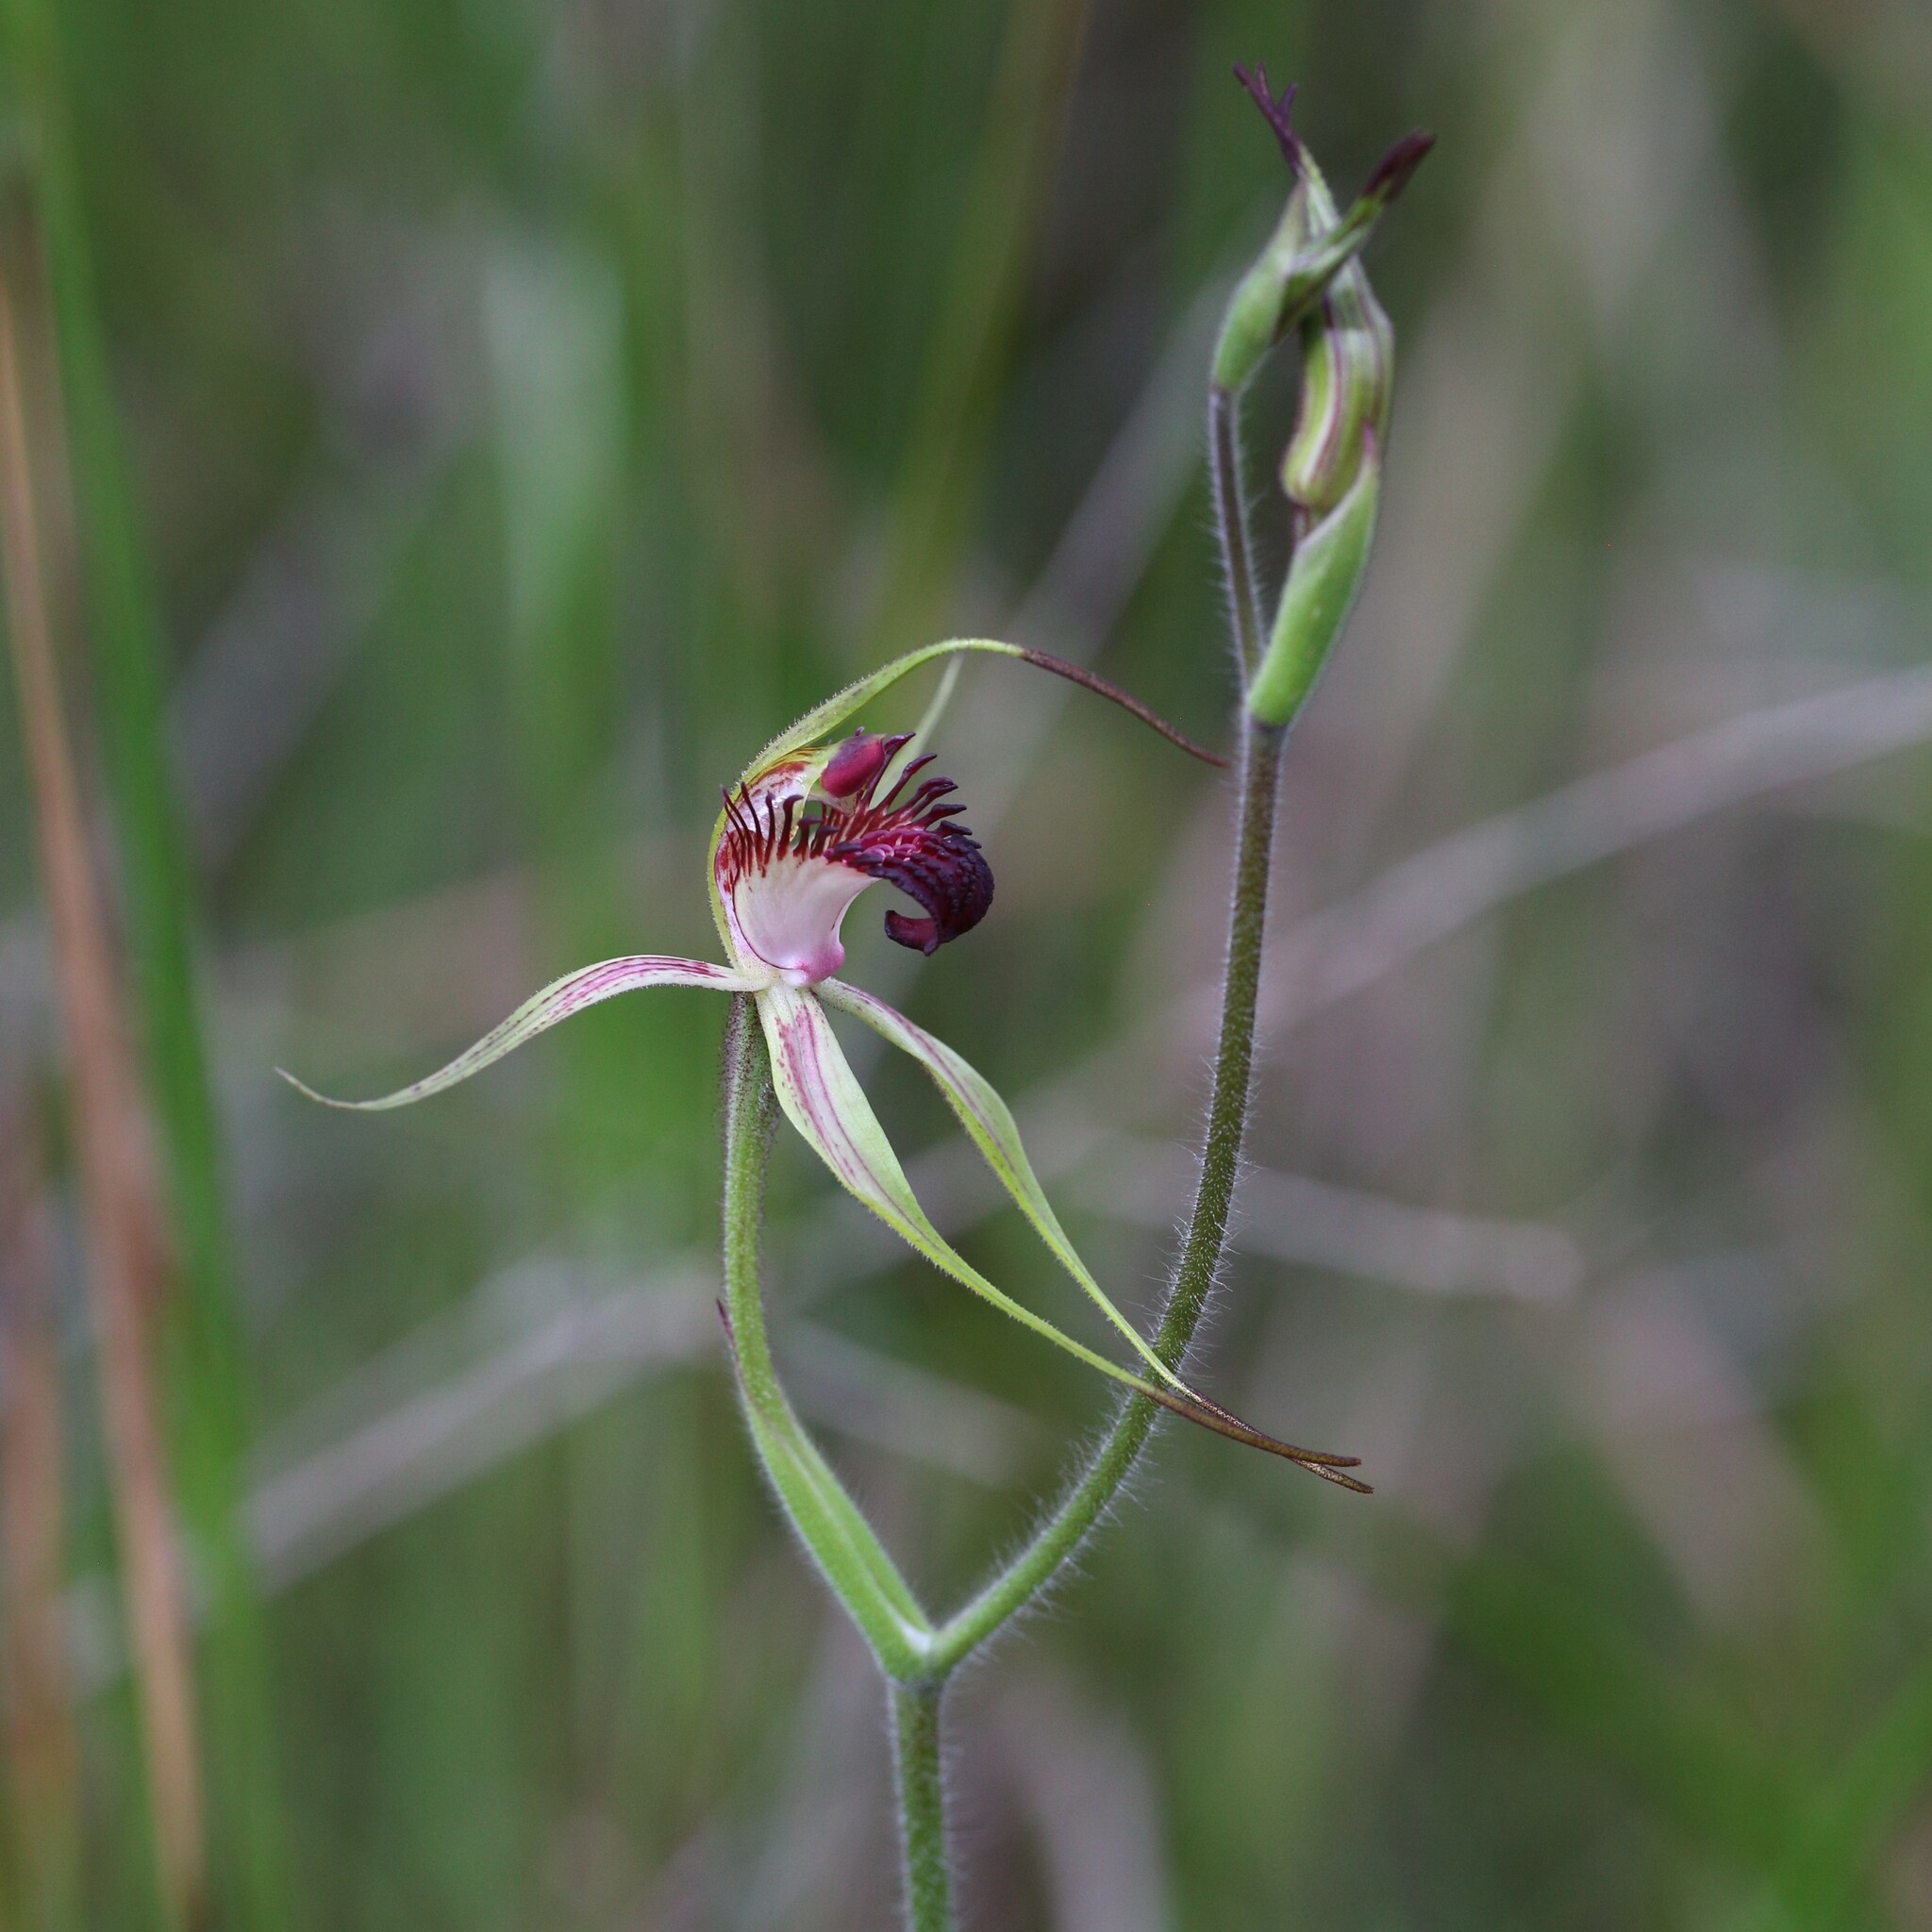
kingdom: Plantae
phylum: Tracheophyta
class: Liliopsida
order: Asparagales
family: Orchidaceae
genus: Caladenia
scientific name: Caladenia paludosa
